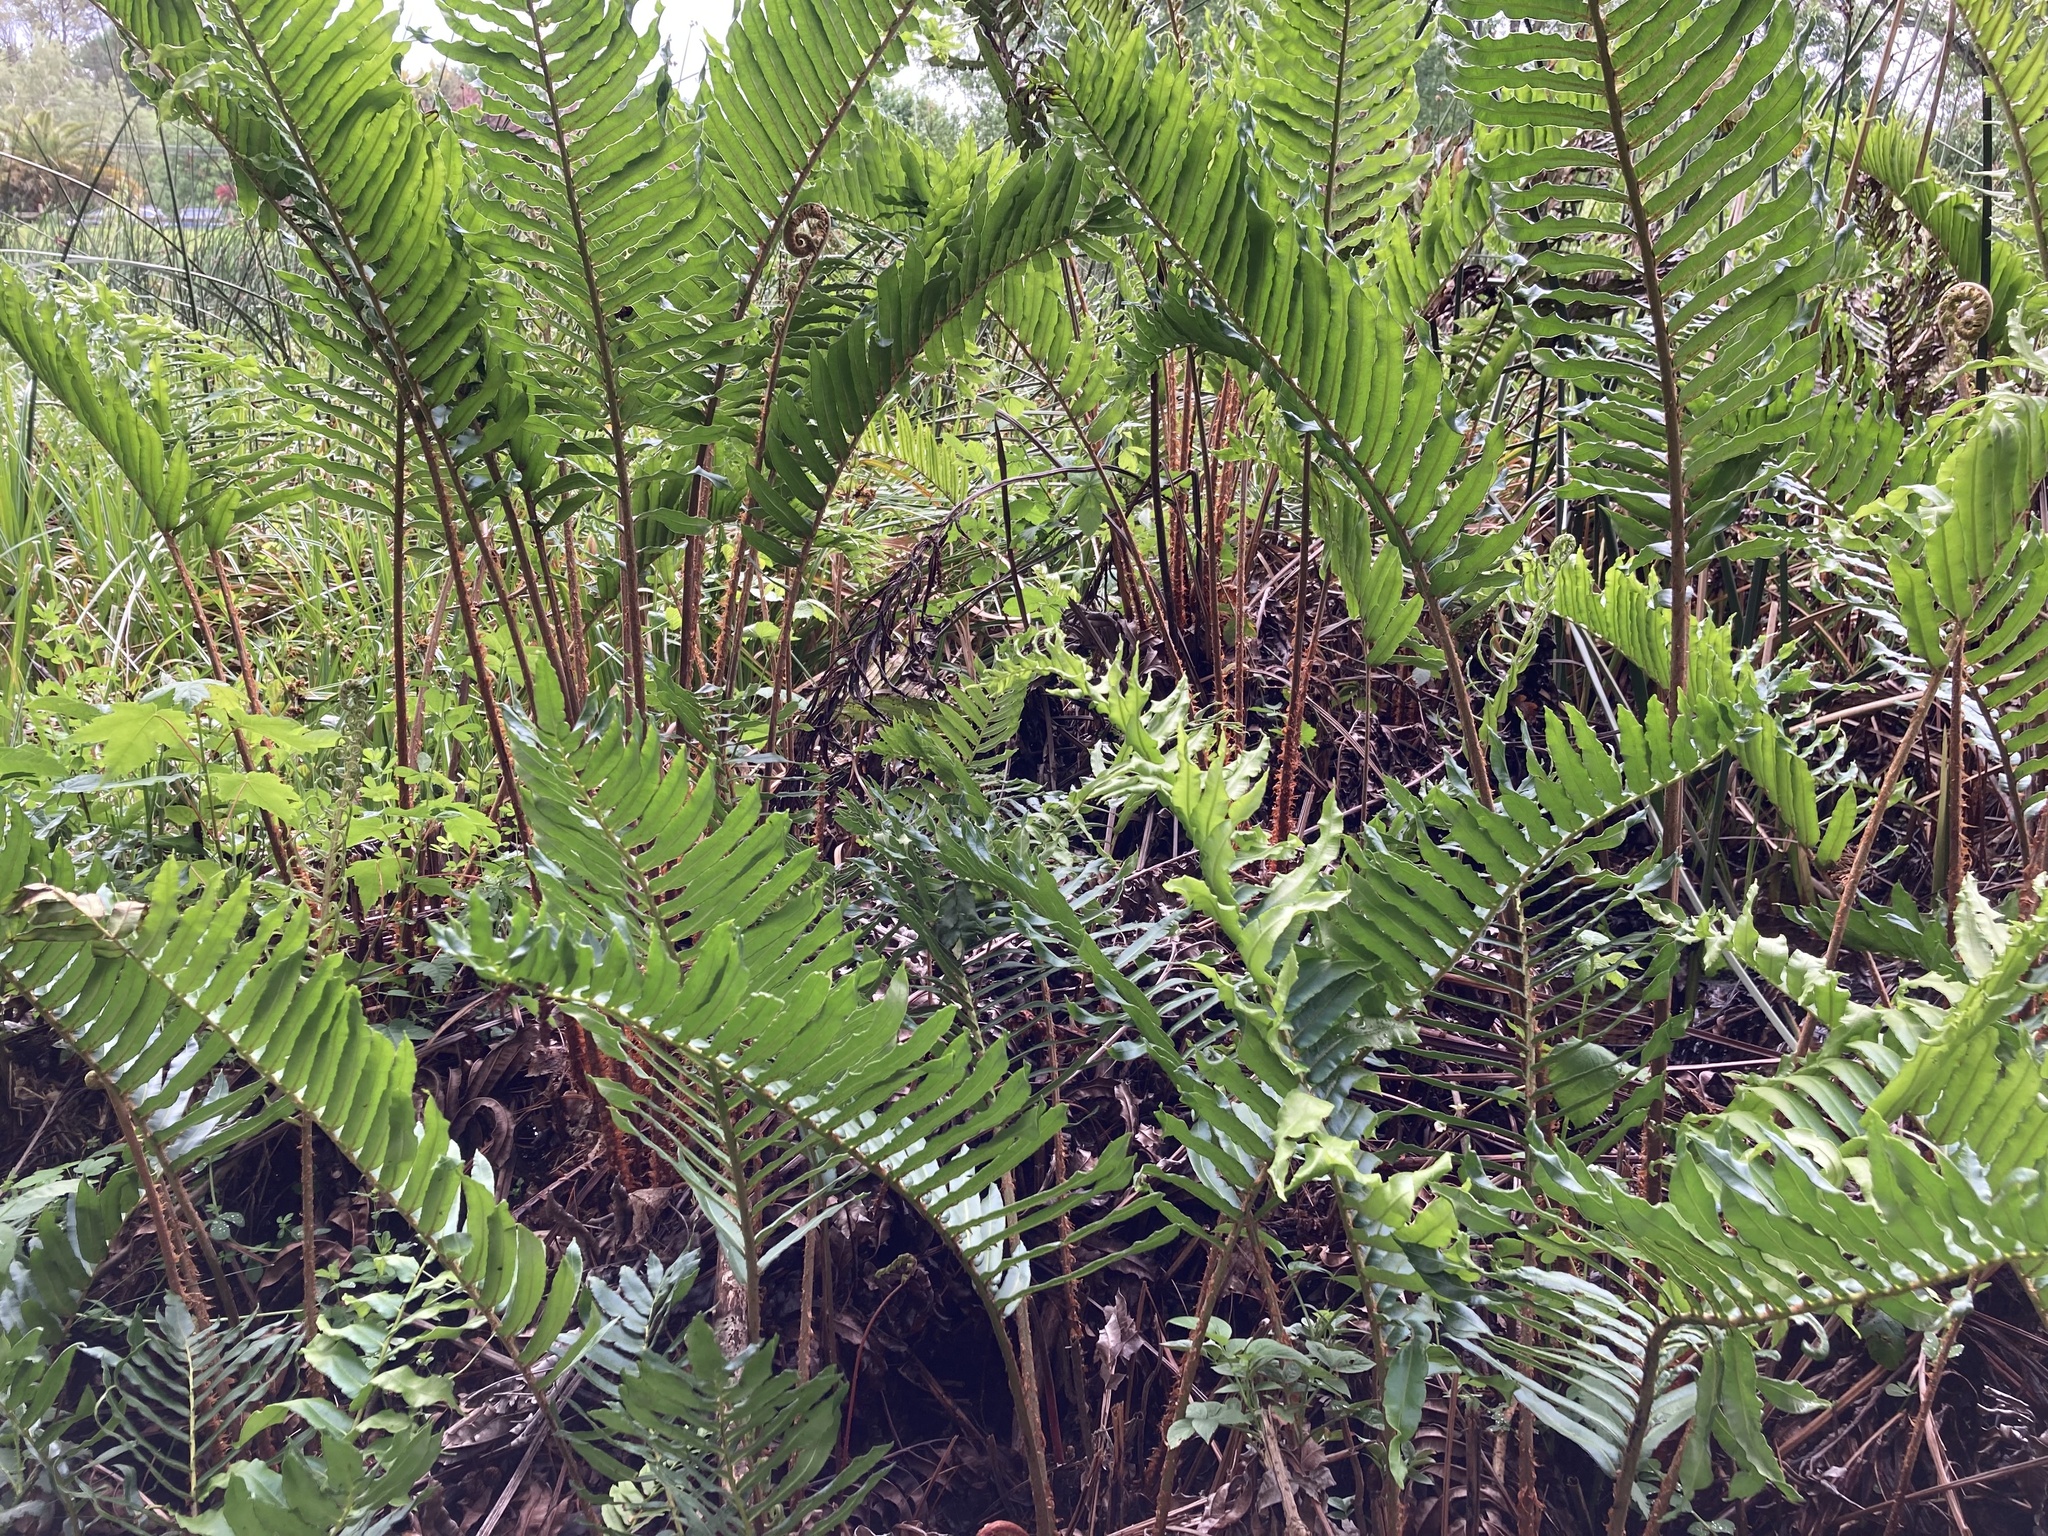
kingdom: Plantae
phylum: Tracheophyta
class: Polypodiopsida
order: Polypodiales
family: Blechnaceae
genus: Parablechnum
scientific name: Parablechnum chilense
